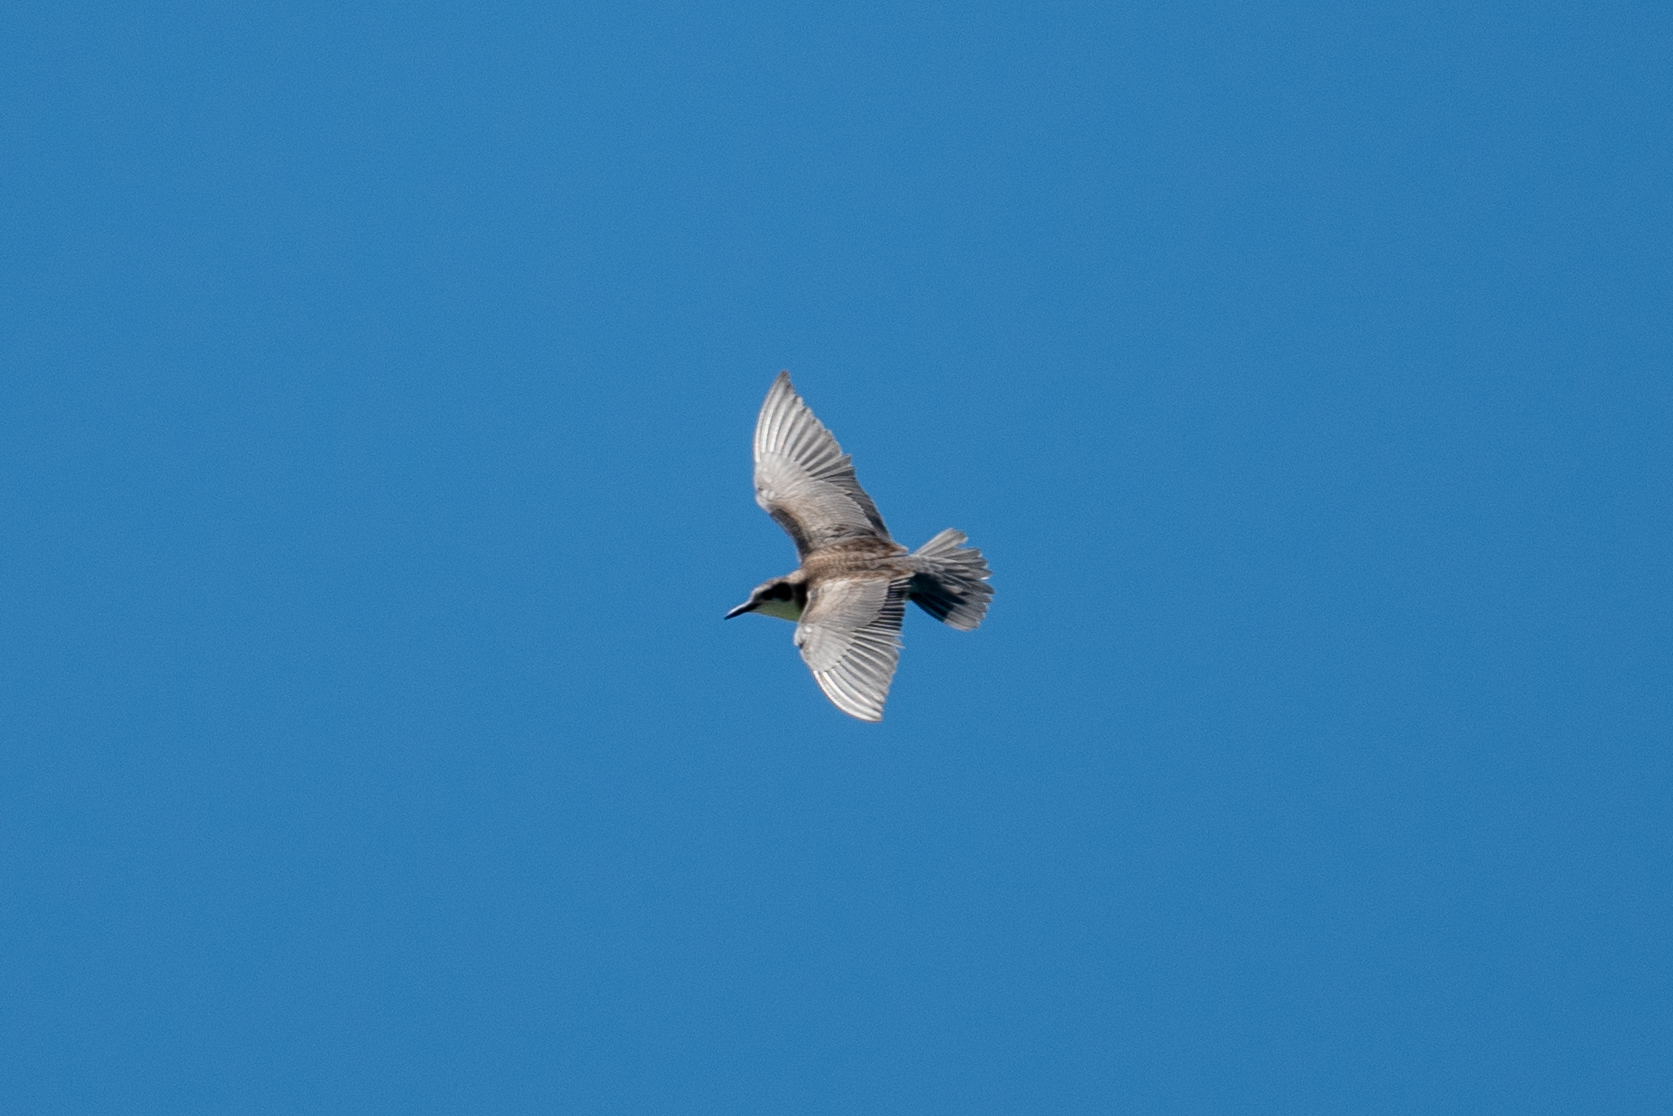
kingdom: Animalia
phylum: Chordata
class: Aves
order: Charadriiformes
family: Laridae
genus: Chlidonias
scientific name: Chlidonias niger
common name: Black tern
